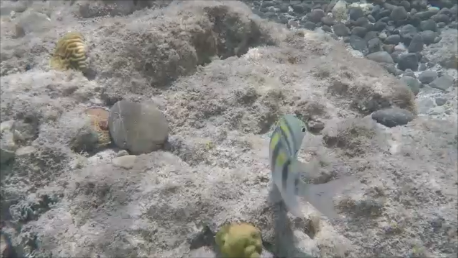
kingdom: Animalia
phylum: Chordata
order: Perciformes
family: Pomacentridae
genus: Abudefduf
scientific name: Abudefduf saxatilis
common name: Sergeant major
